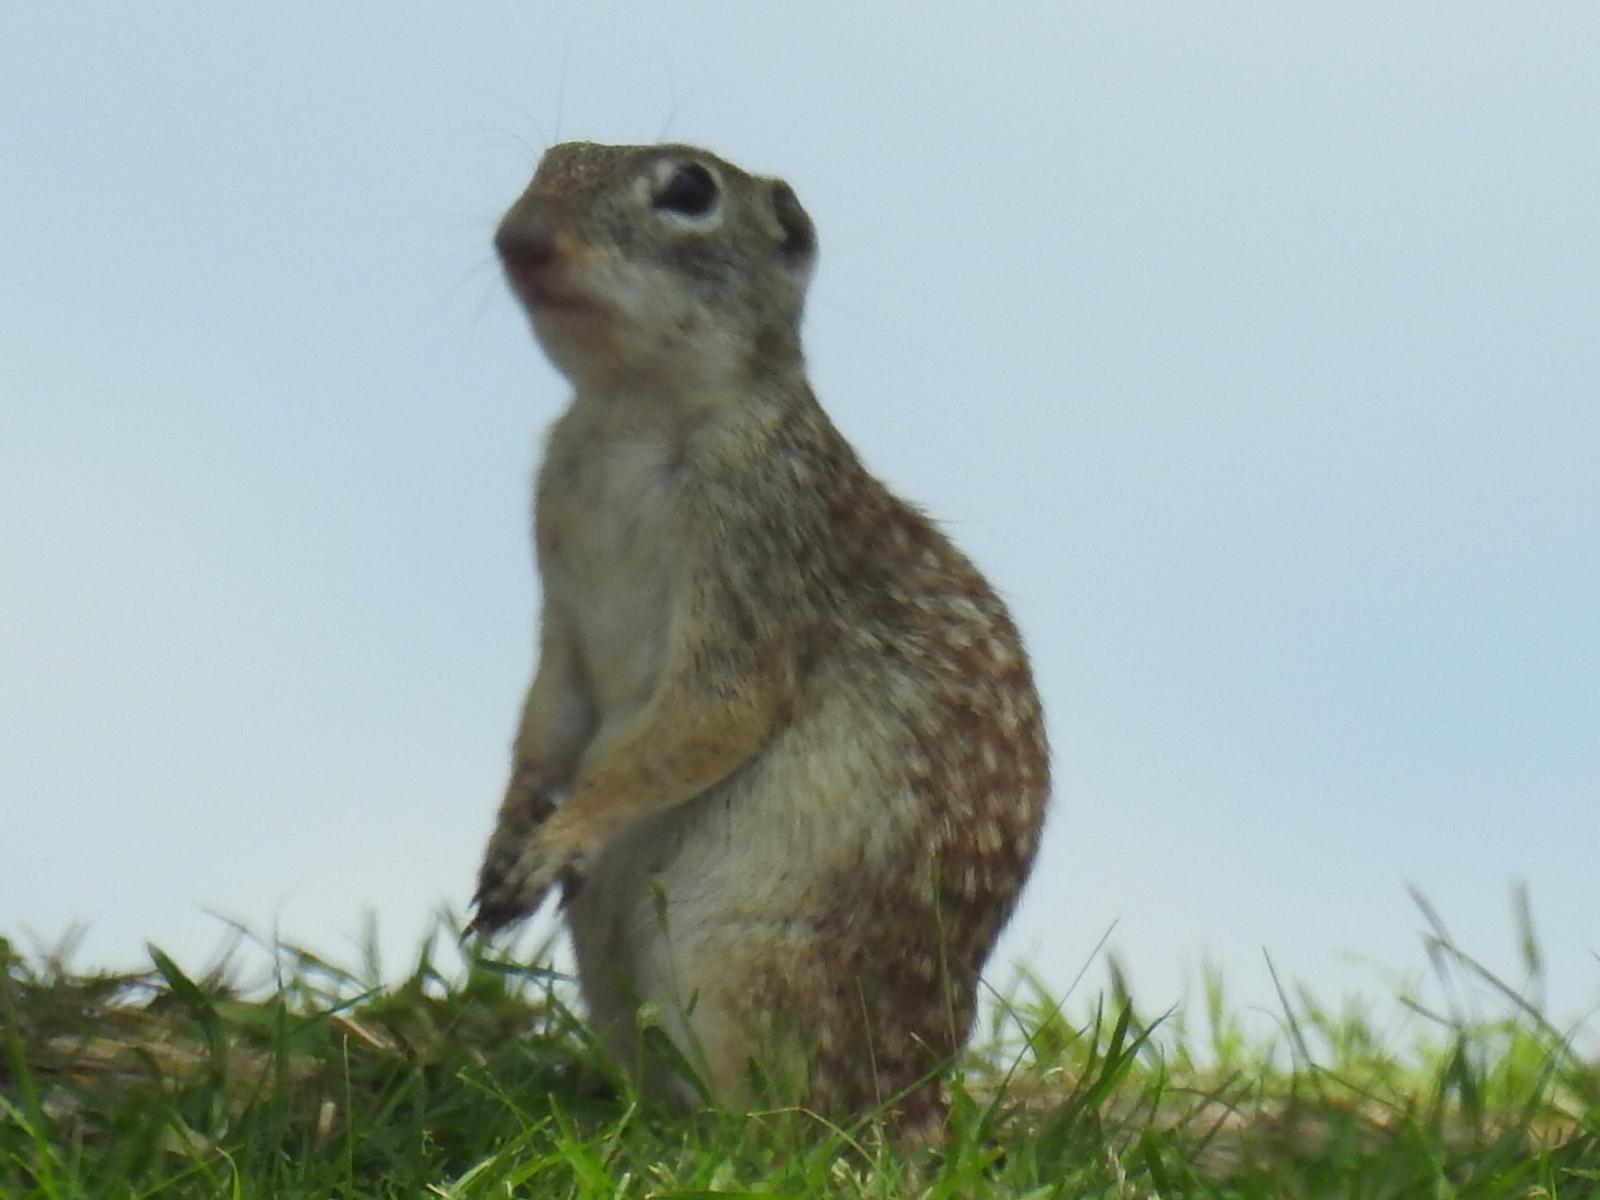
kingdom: Animalia
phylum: Chordata
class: Mammalia
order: Rodentia
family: Sciuridae
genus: Ictidomys
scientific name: Ictidomys parvidens
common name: Rio grande ground squirrel
